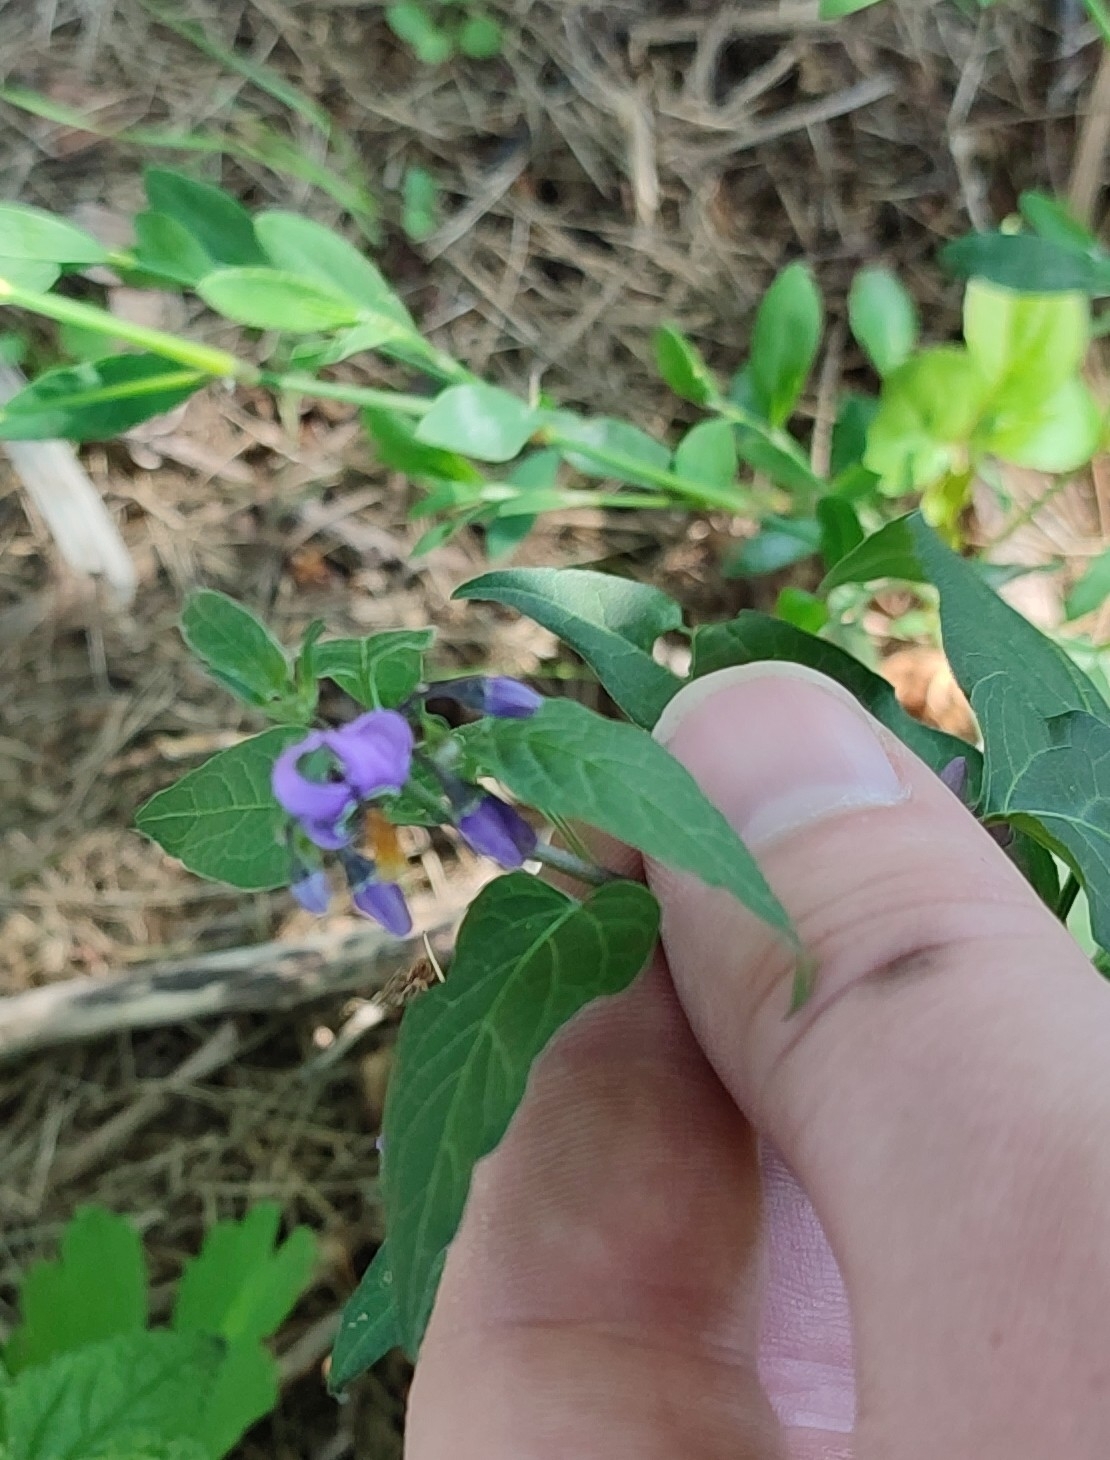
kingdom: Plantae
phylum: Tracheophyta
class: Magnoliopsida
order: Solanales
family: Solanaceae
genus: Solanum
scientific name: Solanum dulcamara
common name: Climbing nightshade
